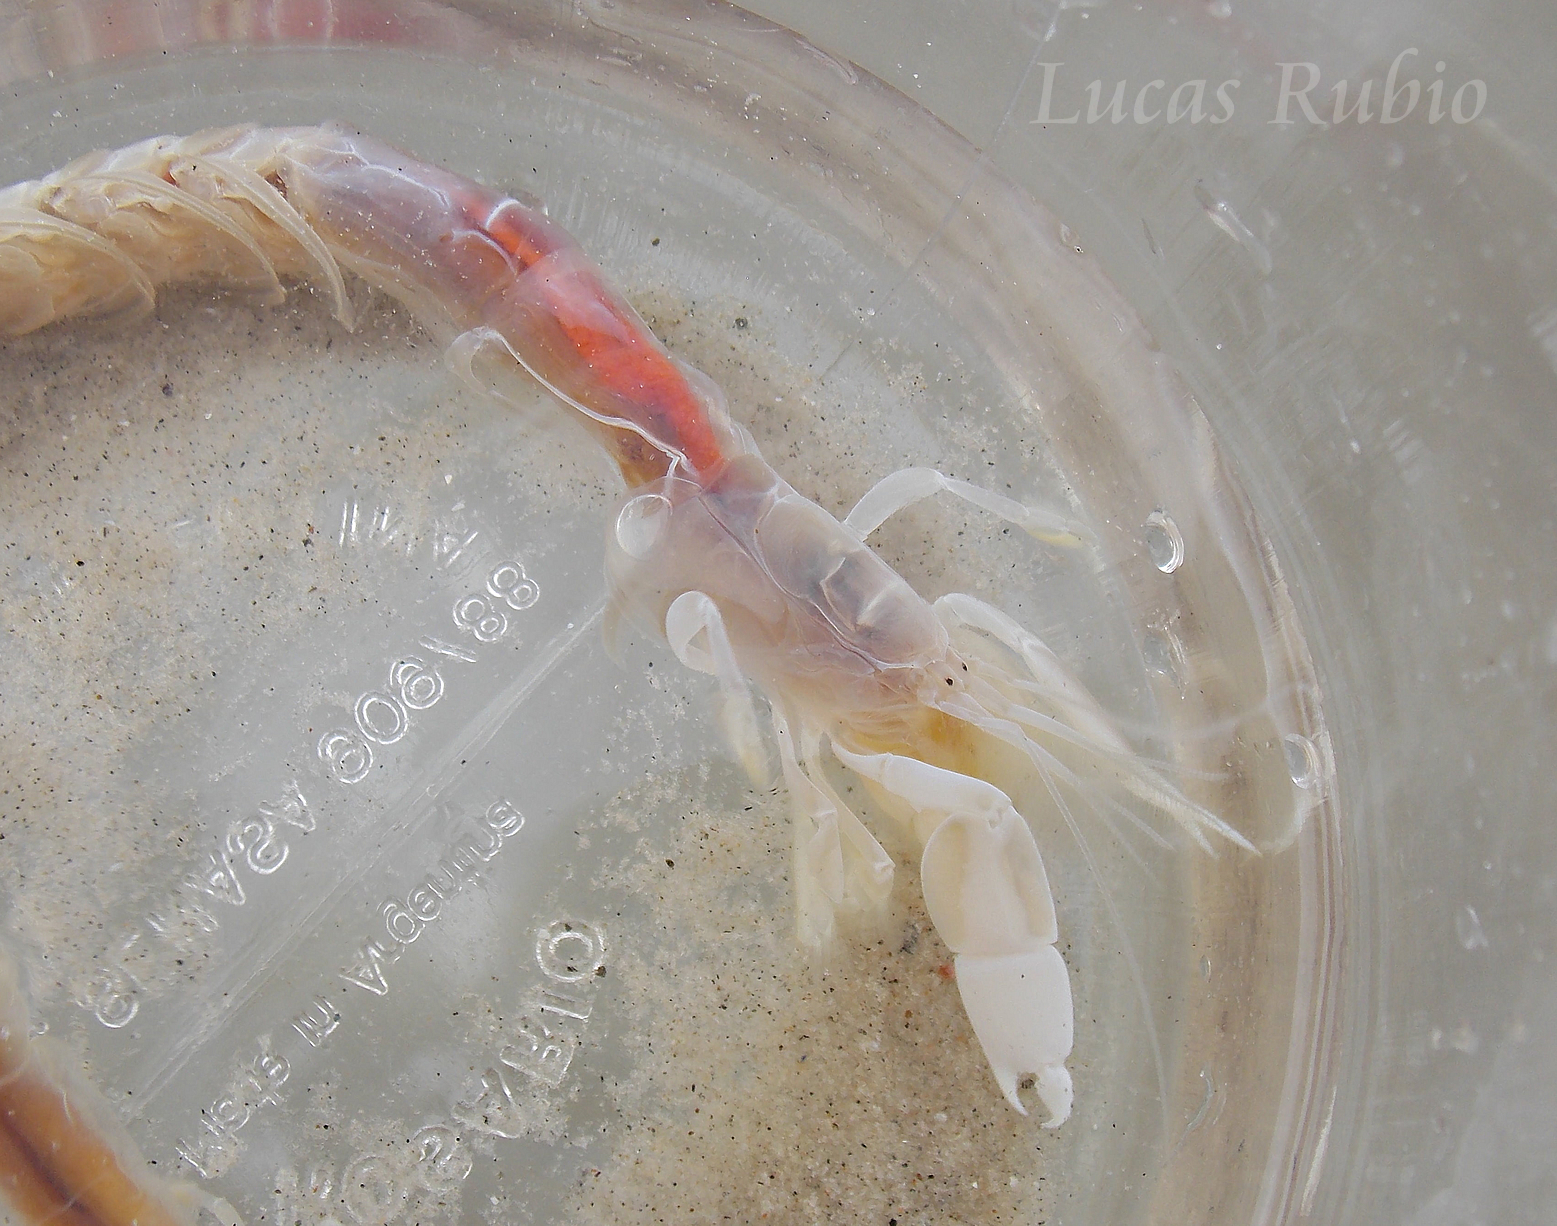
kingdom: Animalia
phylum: Arthropoda
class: Malacostraca
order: Decapoda
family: Callichiridae
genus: Callichirus
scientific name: Callichirus major
